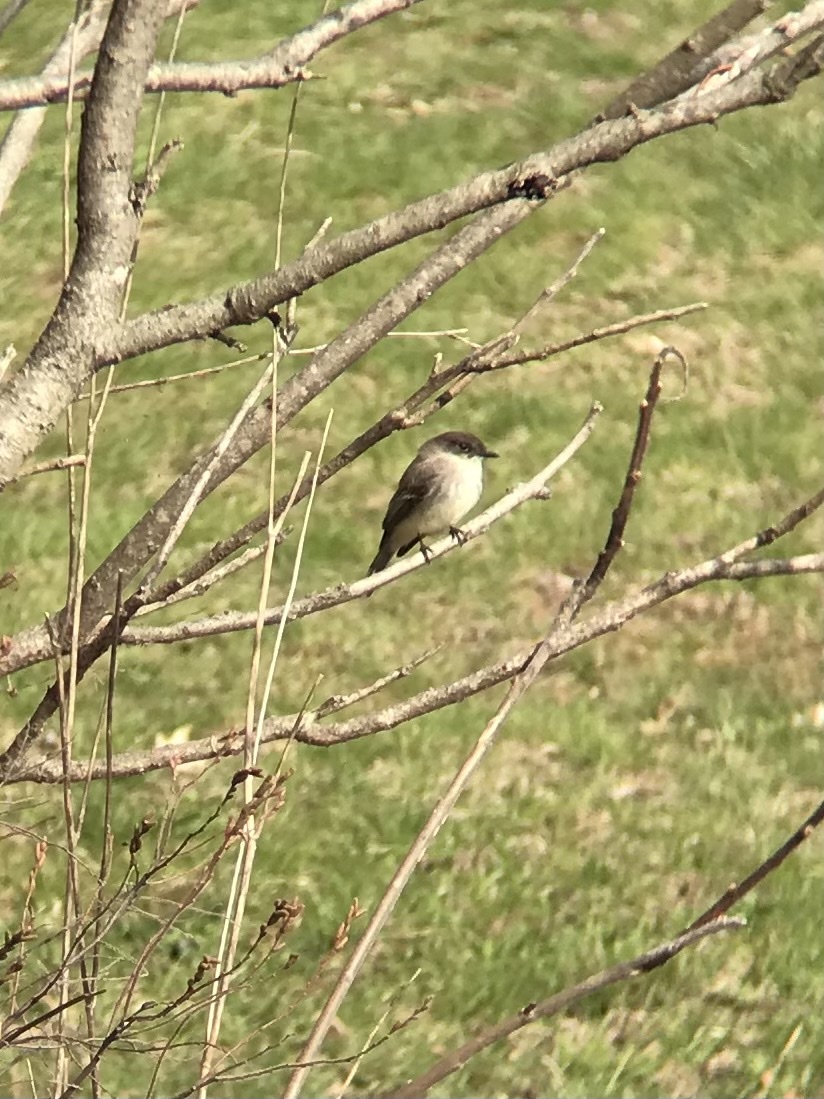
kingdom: Animalia
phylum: Chordata
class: Aves
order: Passeriformes
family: Tyrannidae
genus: Sayornis
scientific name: Sayornis phoebe
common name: Eastern phoebe
